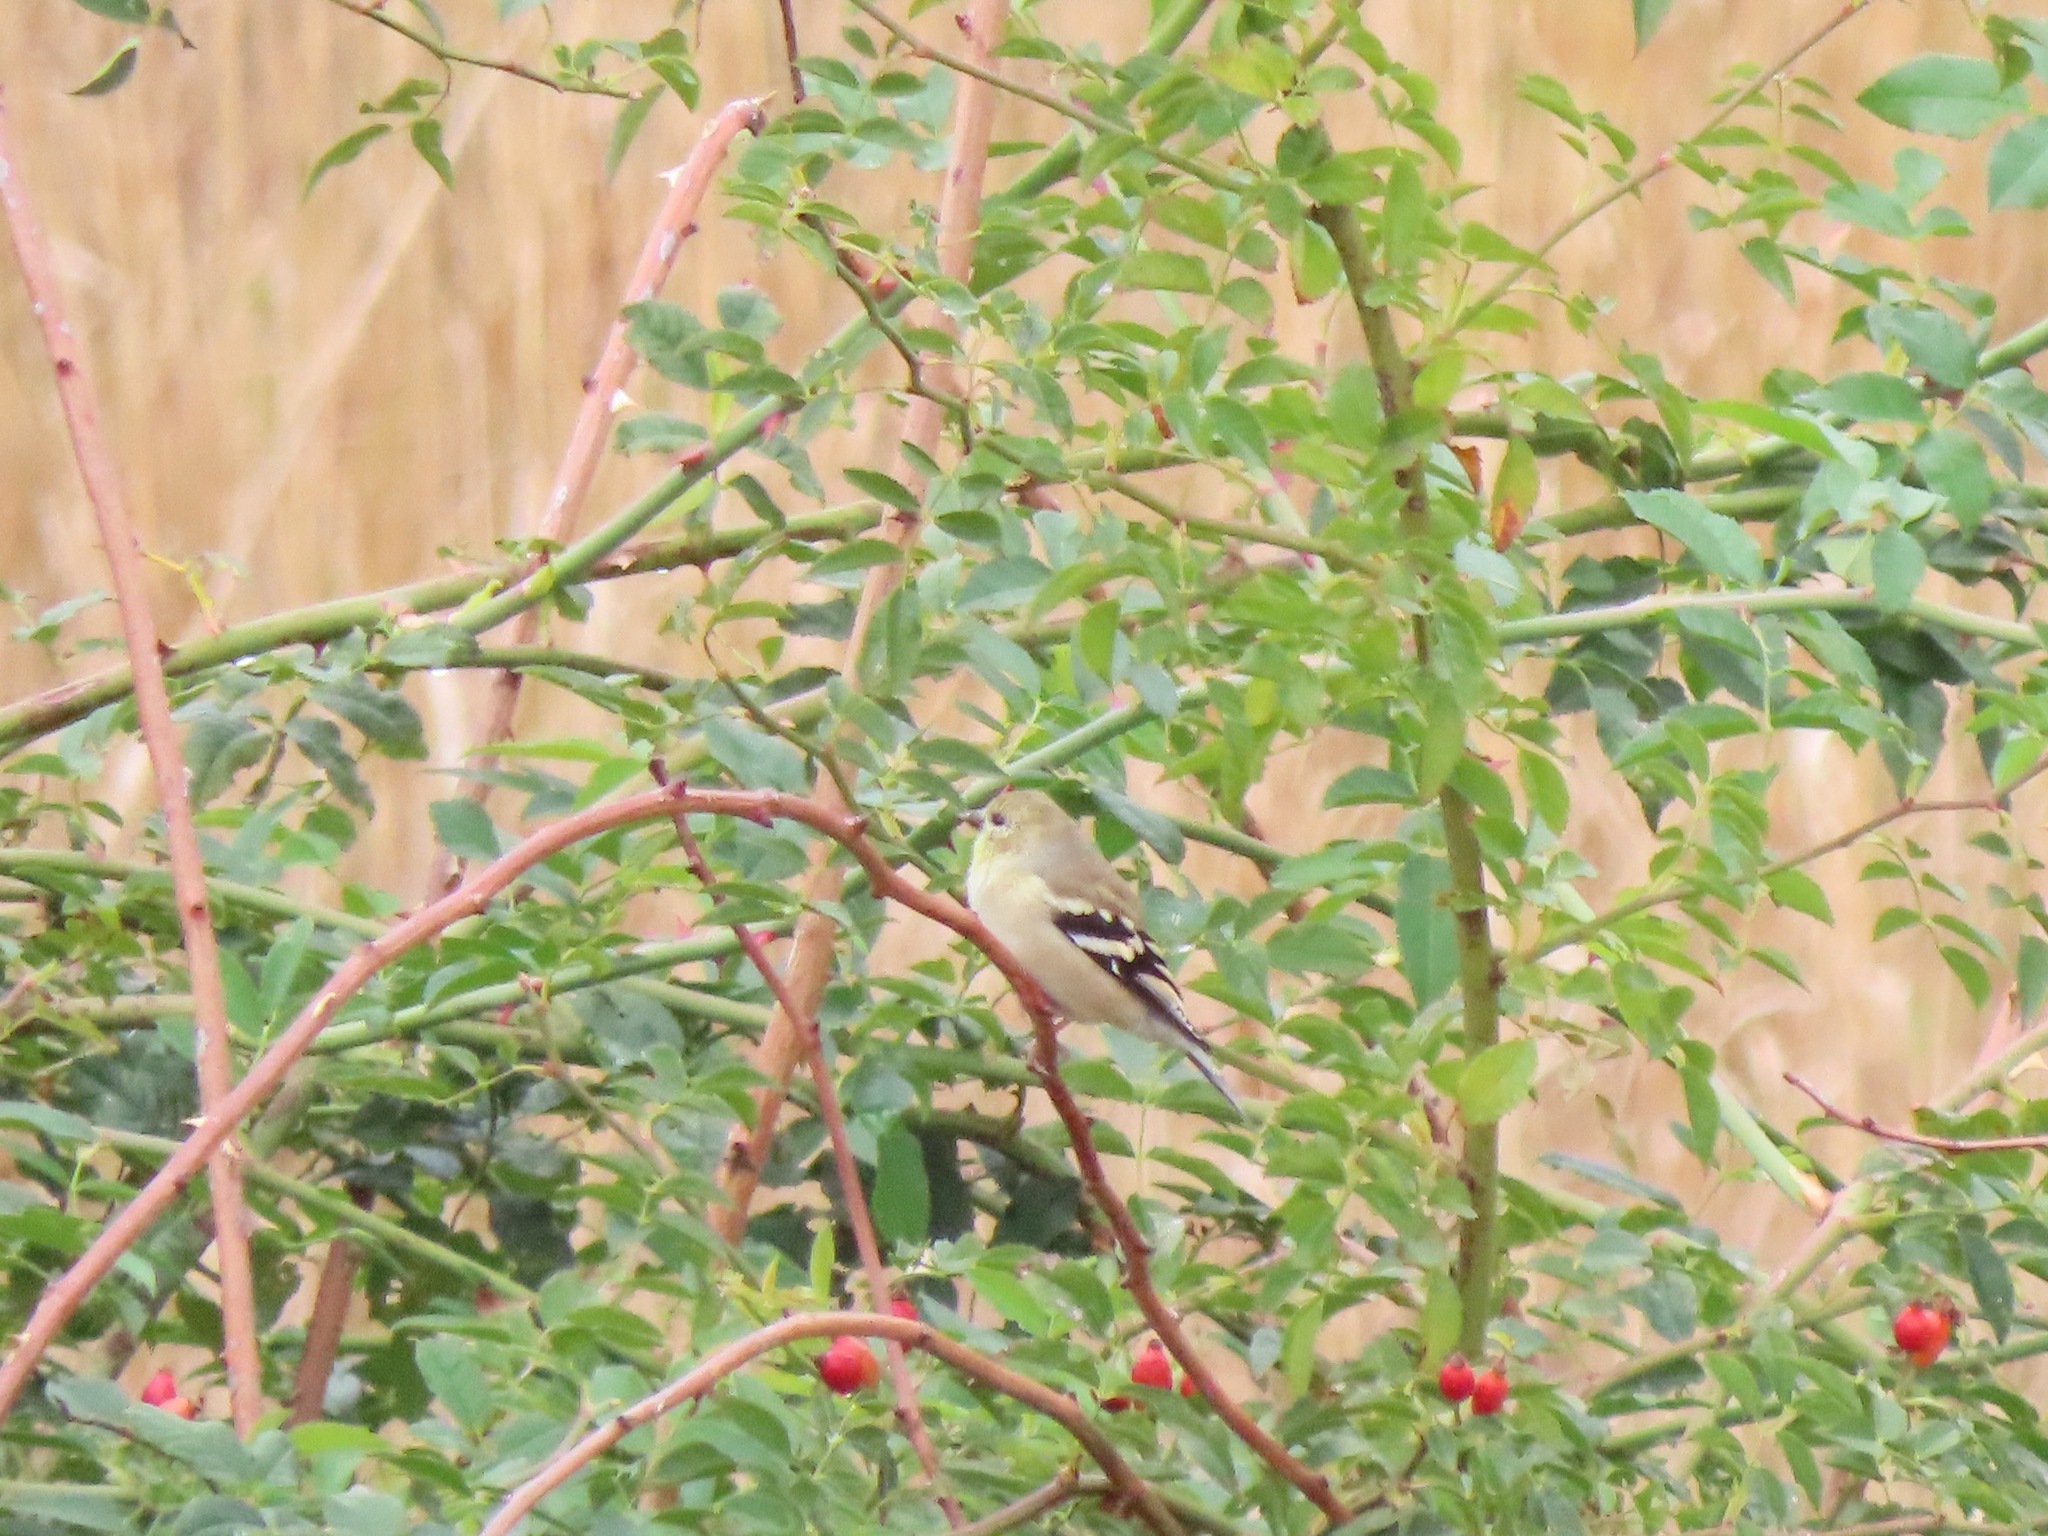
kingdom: Animalia
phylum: Chordata
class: Aves
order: Passeriformes
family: Fringillidae
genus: Spinus
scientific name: Spinus tristis
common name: American goldfinch
